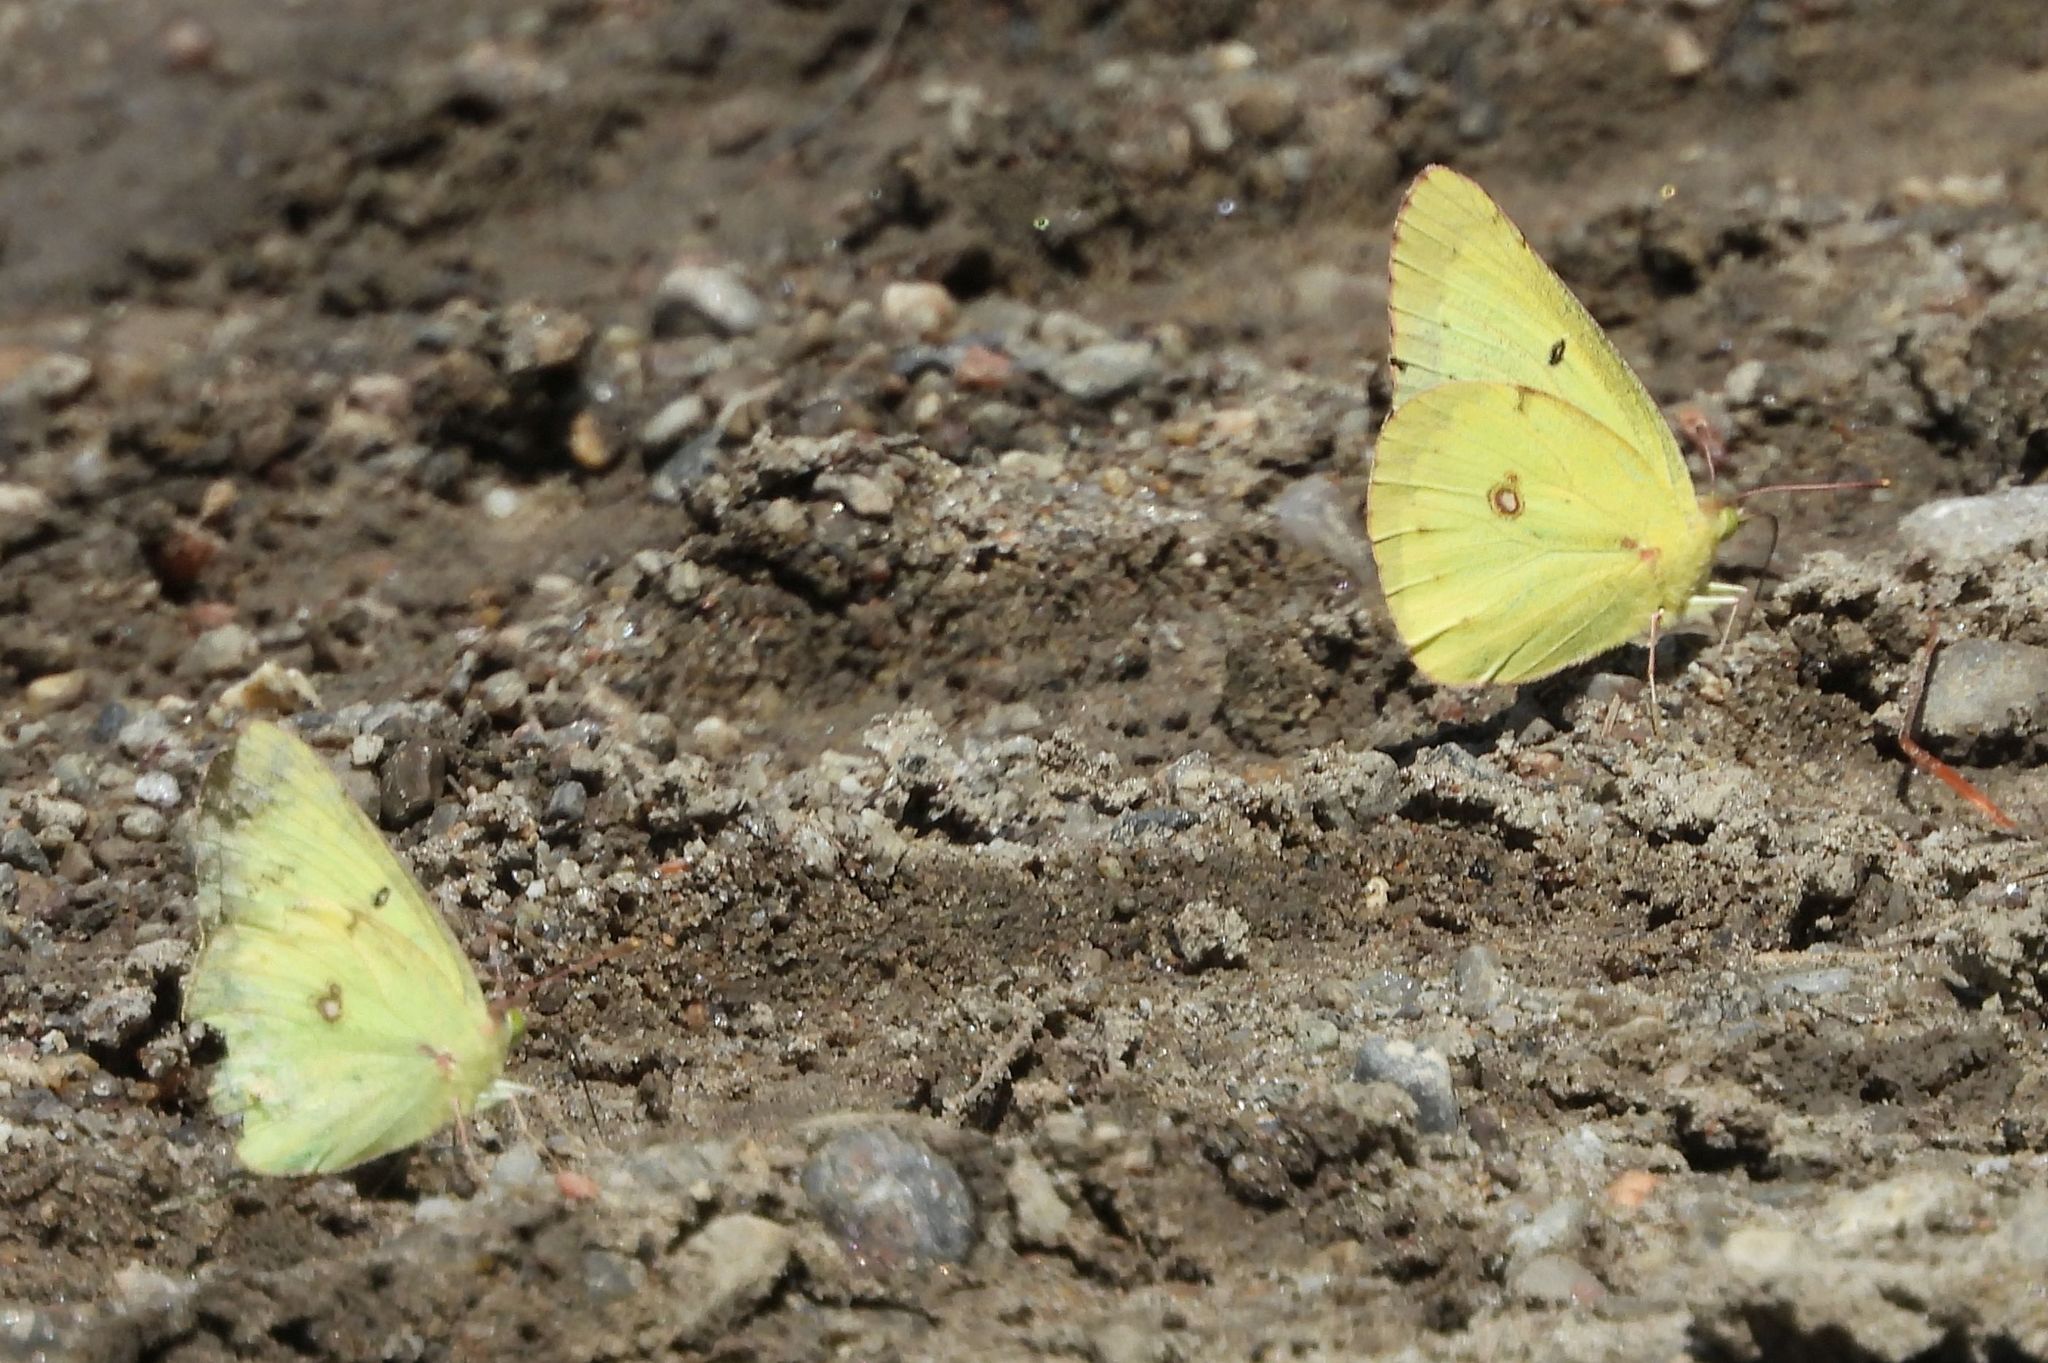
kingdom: Animalia
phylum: Arthropoda
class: Insecta
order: Lepidoptera
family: Pieridae
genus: Colias
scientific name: Colias philodice
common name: Clouded sulphur
